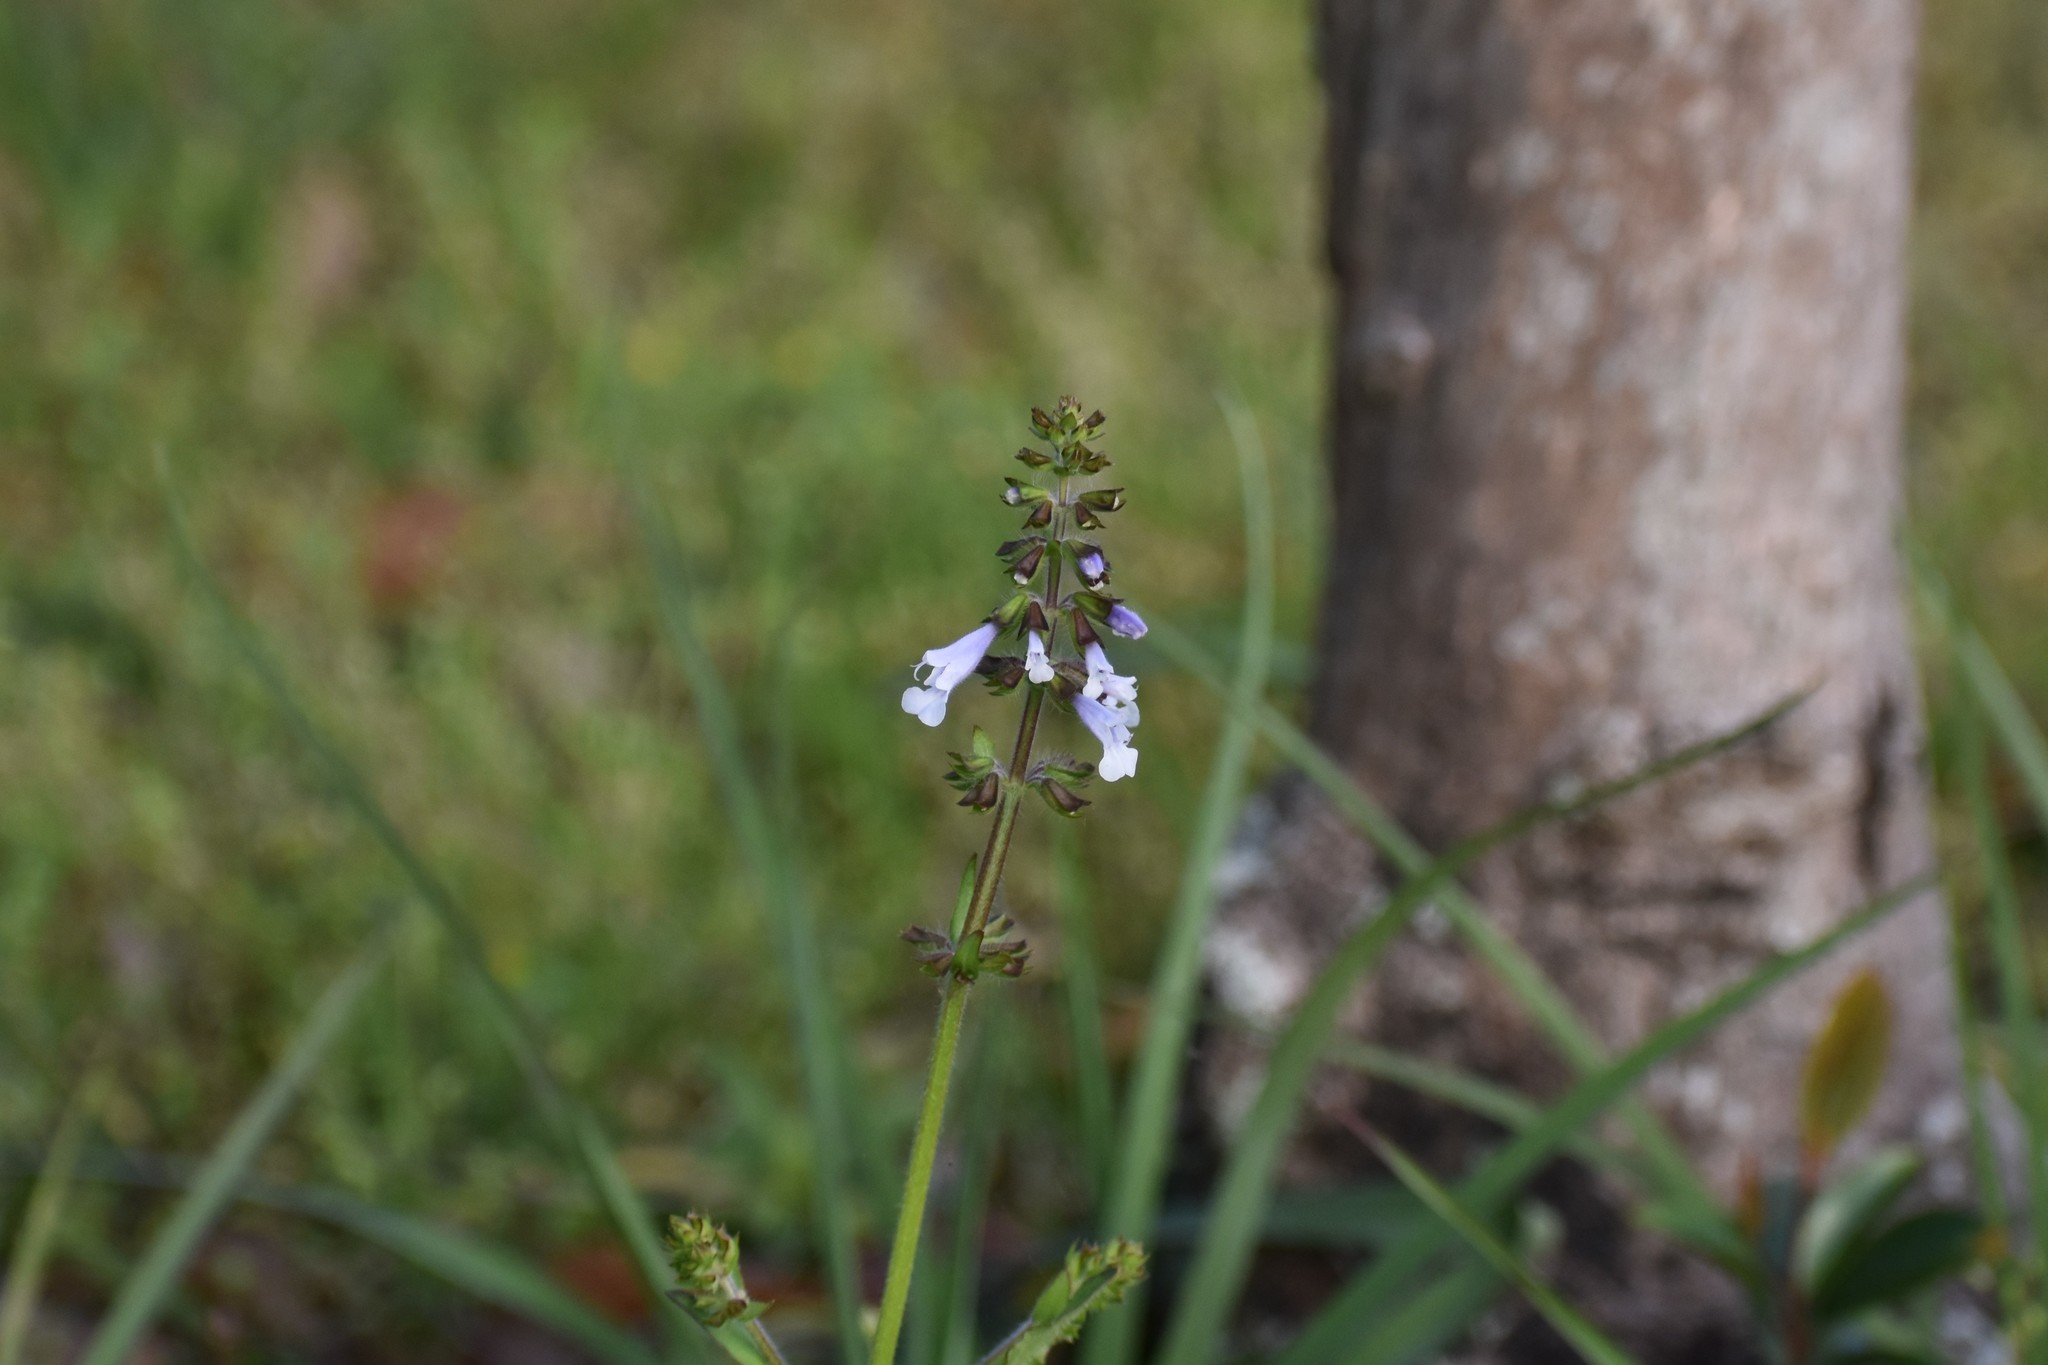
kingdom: Plantae
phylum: Tracheophyta
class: Magnoliopsida
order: Lamiales
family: Lamiaceae
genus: Salvia
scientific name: Salvia lyrata
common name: Cancerweed
